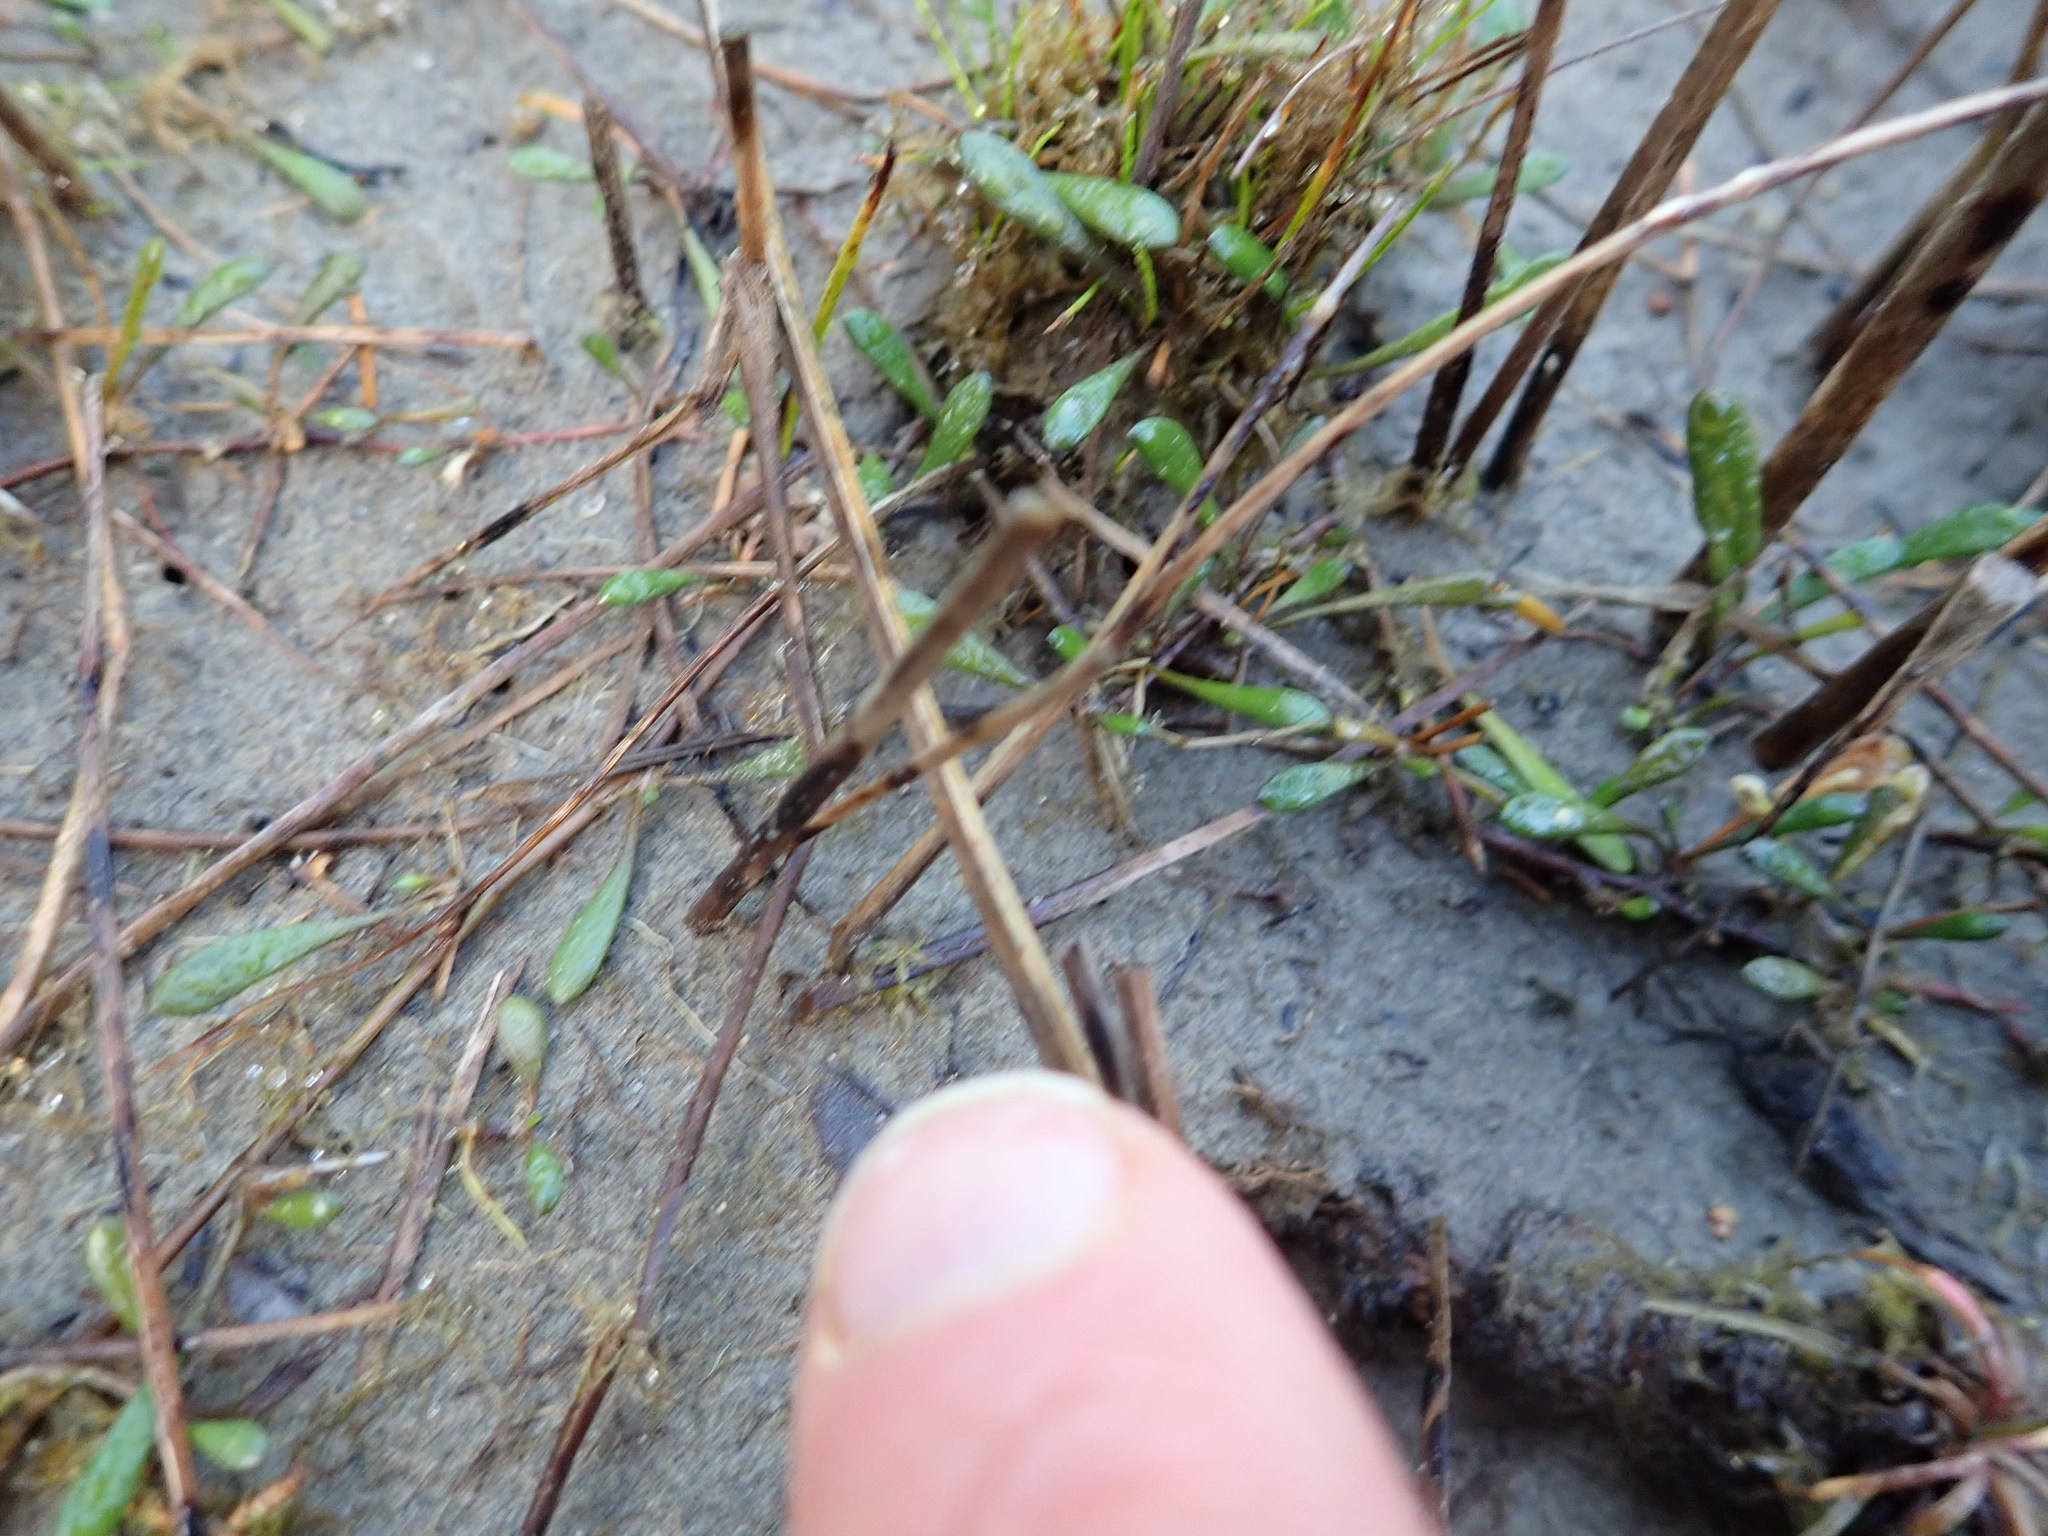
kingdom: Plantae
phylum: Tracheophyta
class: Magnoliopsida
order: Asterales
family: Goodeniaceae
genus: Goodenia
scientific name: Goodenia radicans
